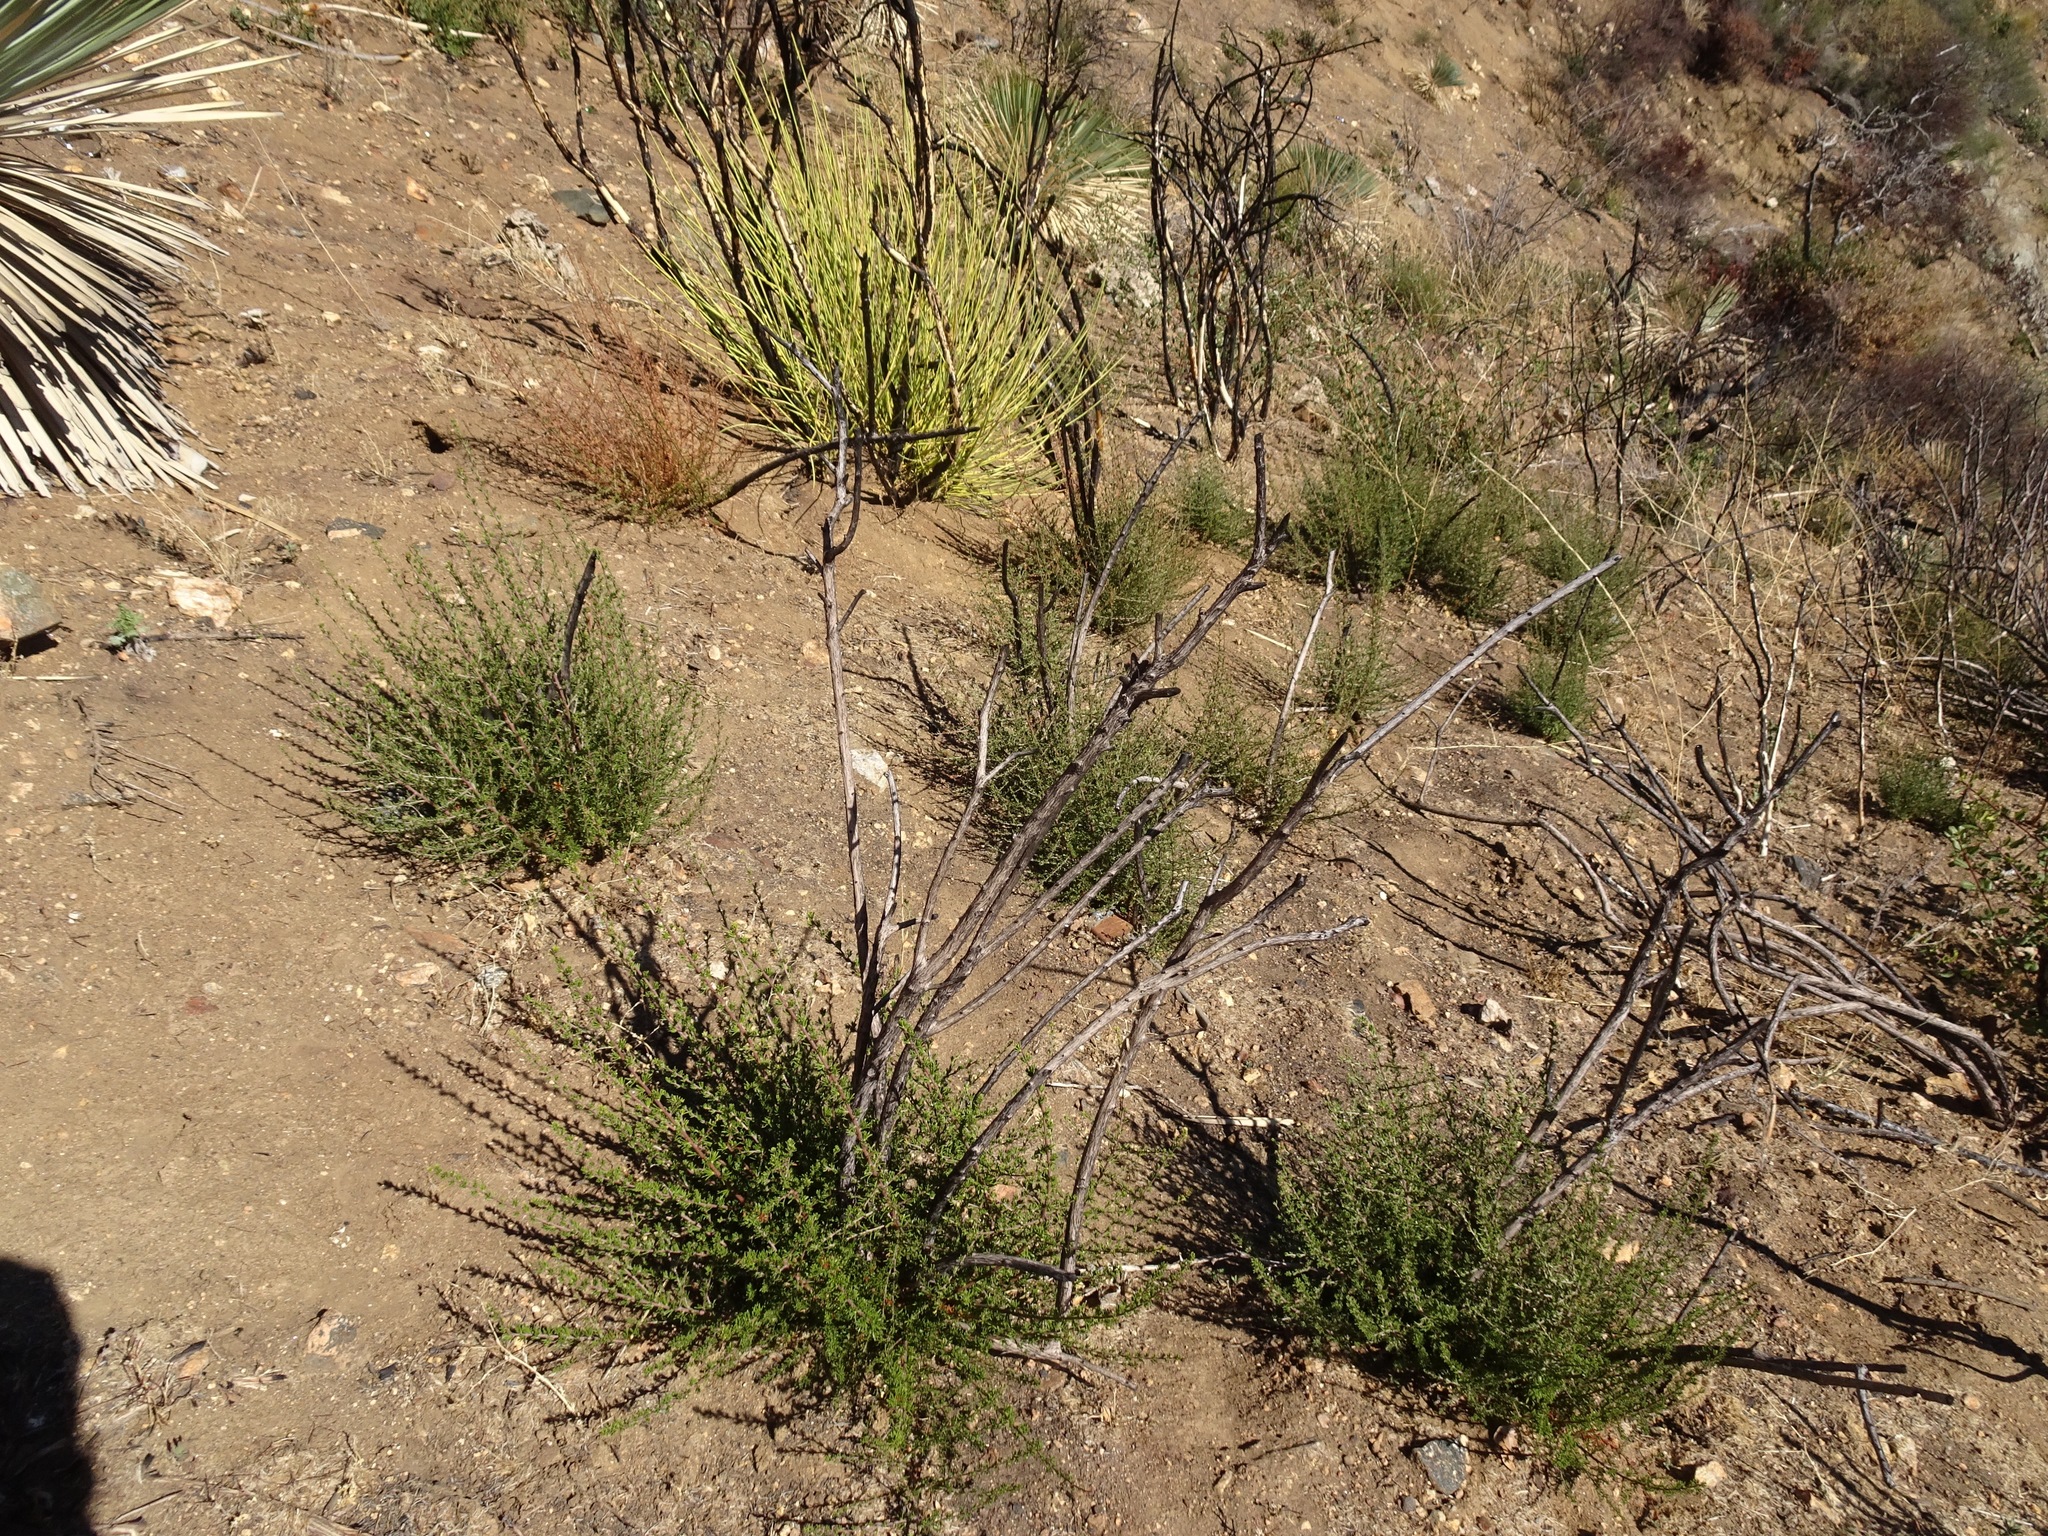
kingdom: Plantae
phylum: Tracheophyta
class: Magnoliopsida
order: Rosales
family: Rosaceae
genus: Adenostoma
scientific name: Adenostoma fasciculatum
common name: Chamise
